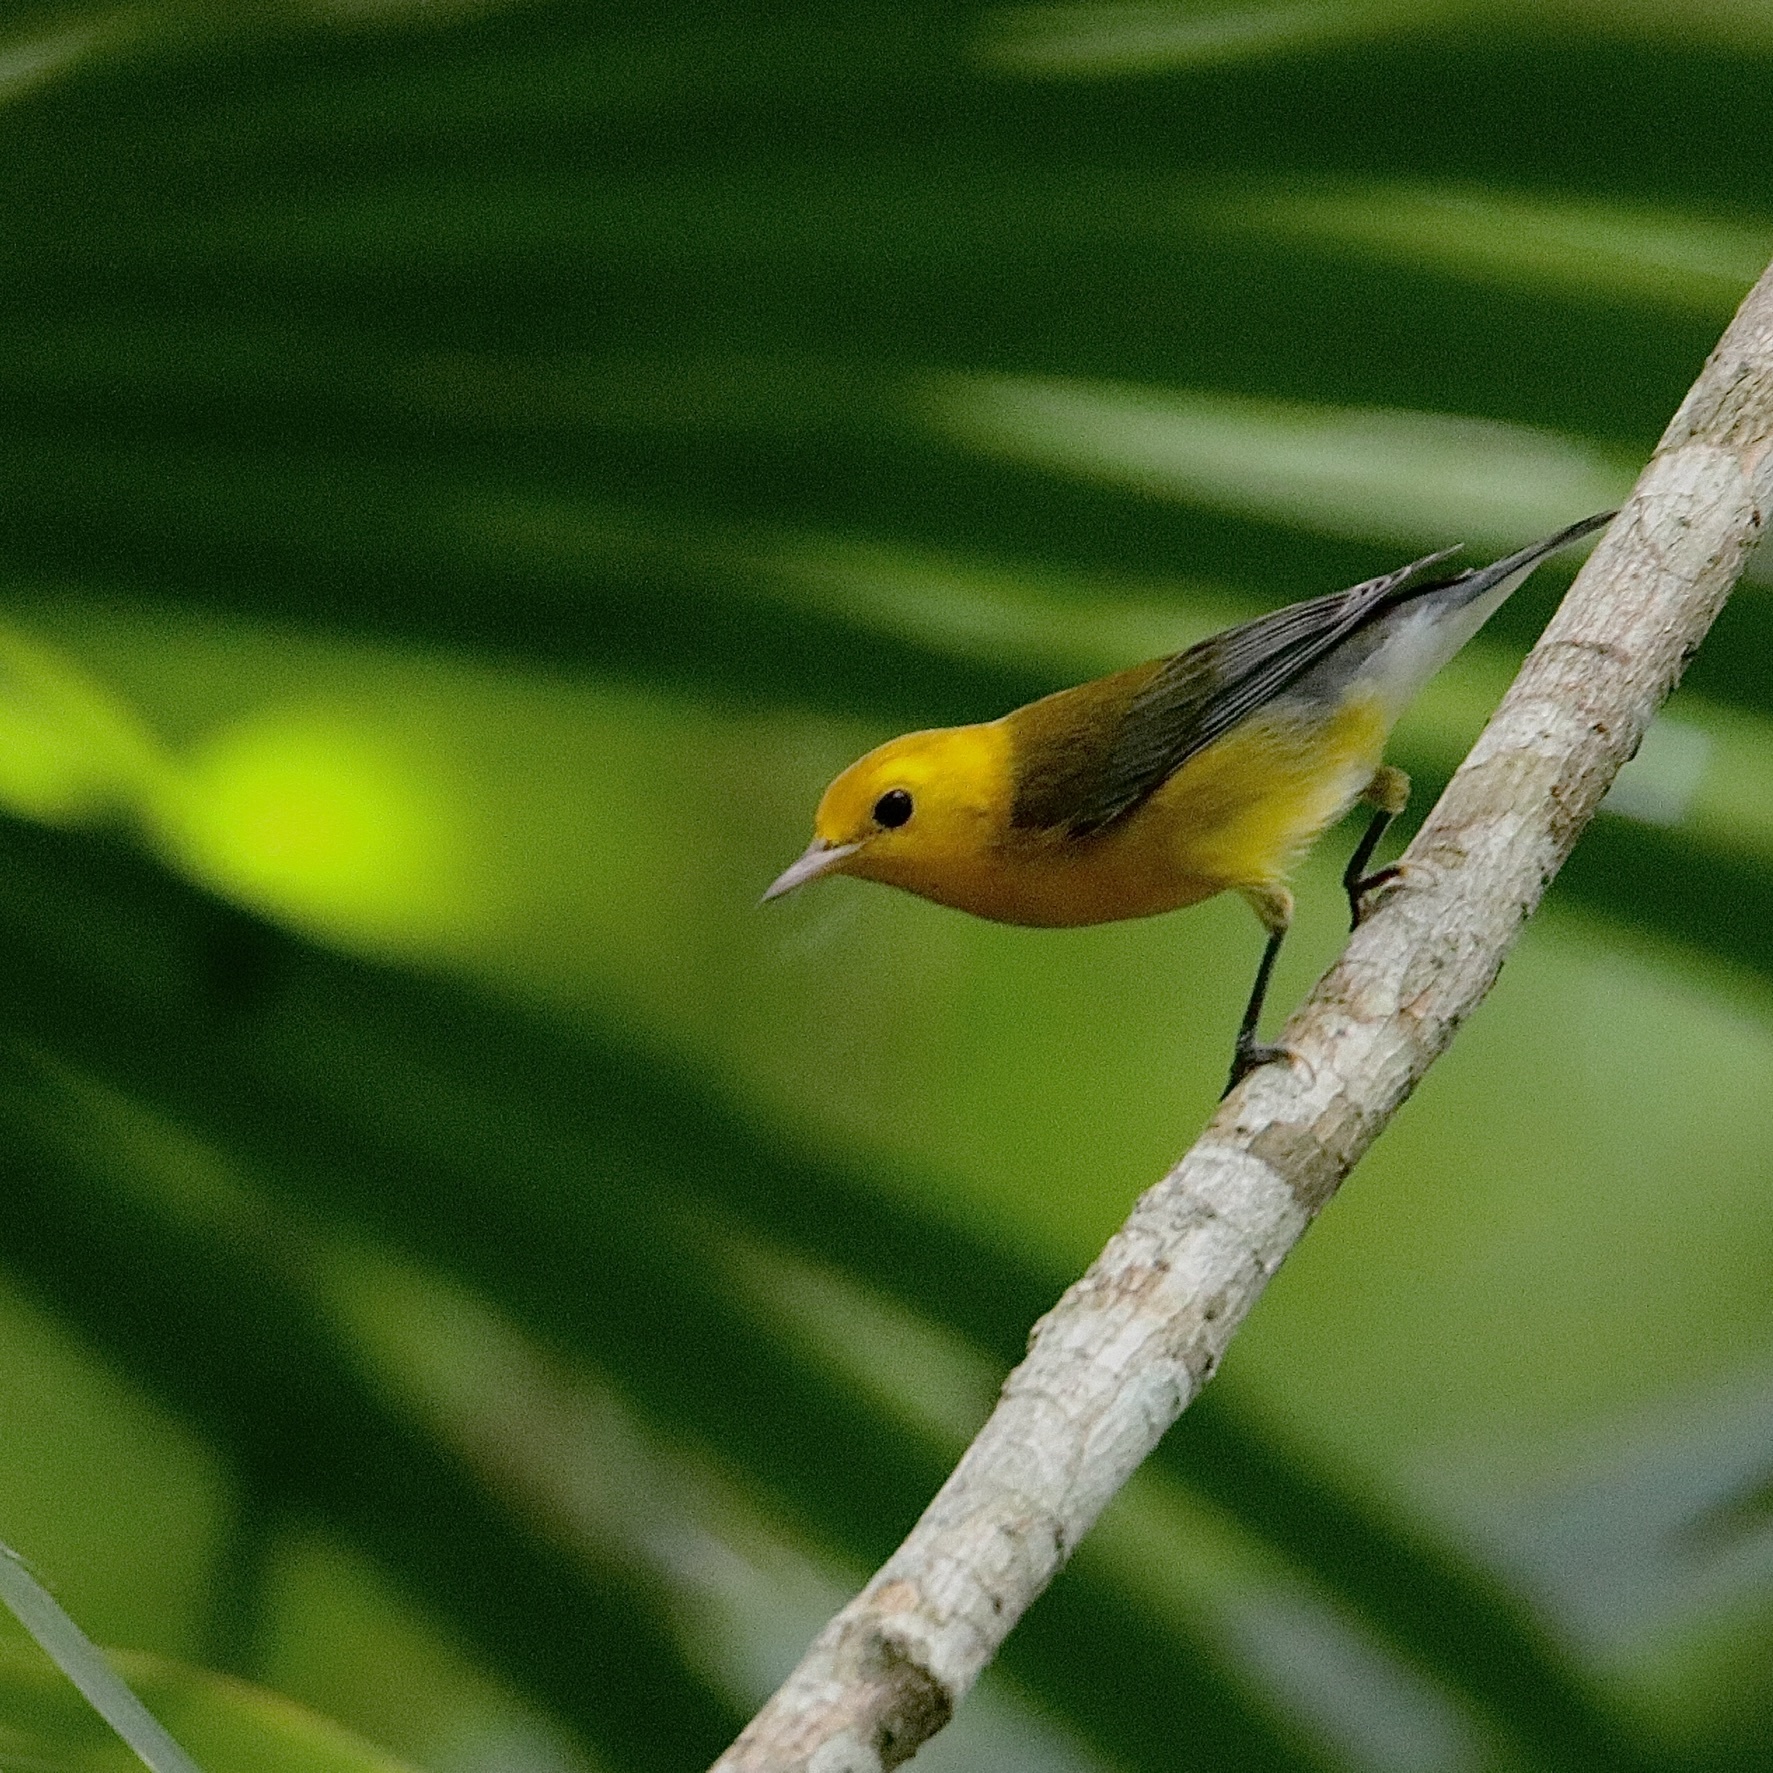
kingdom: Animalia
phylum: Chordata
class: Aves
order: Passeriformes
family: Parulidae
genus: Protonotaria
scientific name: Protonotaria citrea
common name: Prothonotary warbler
